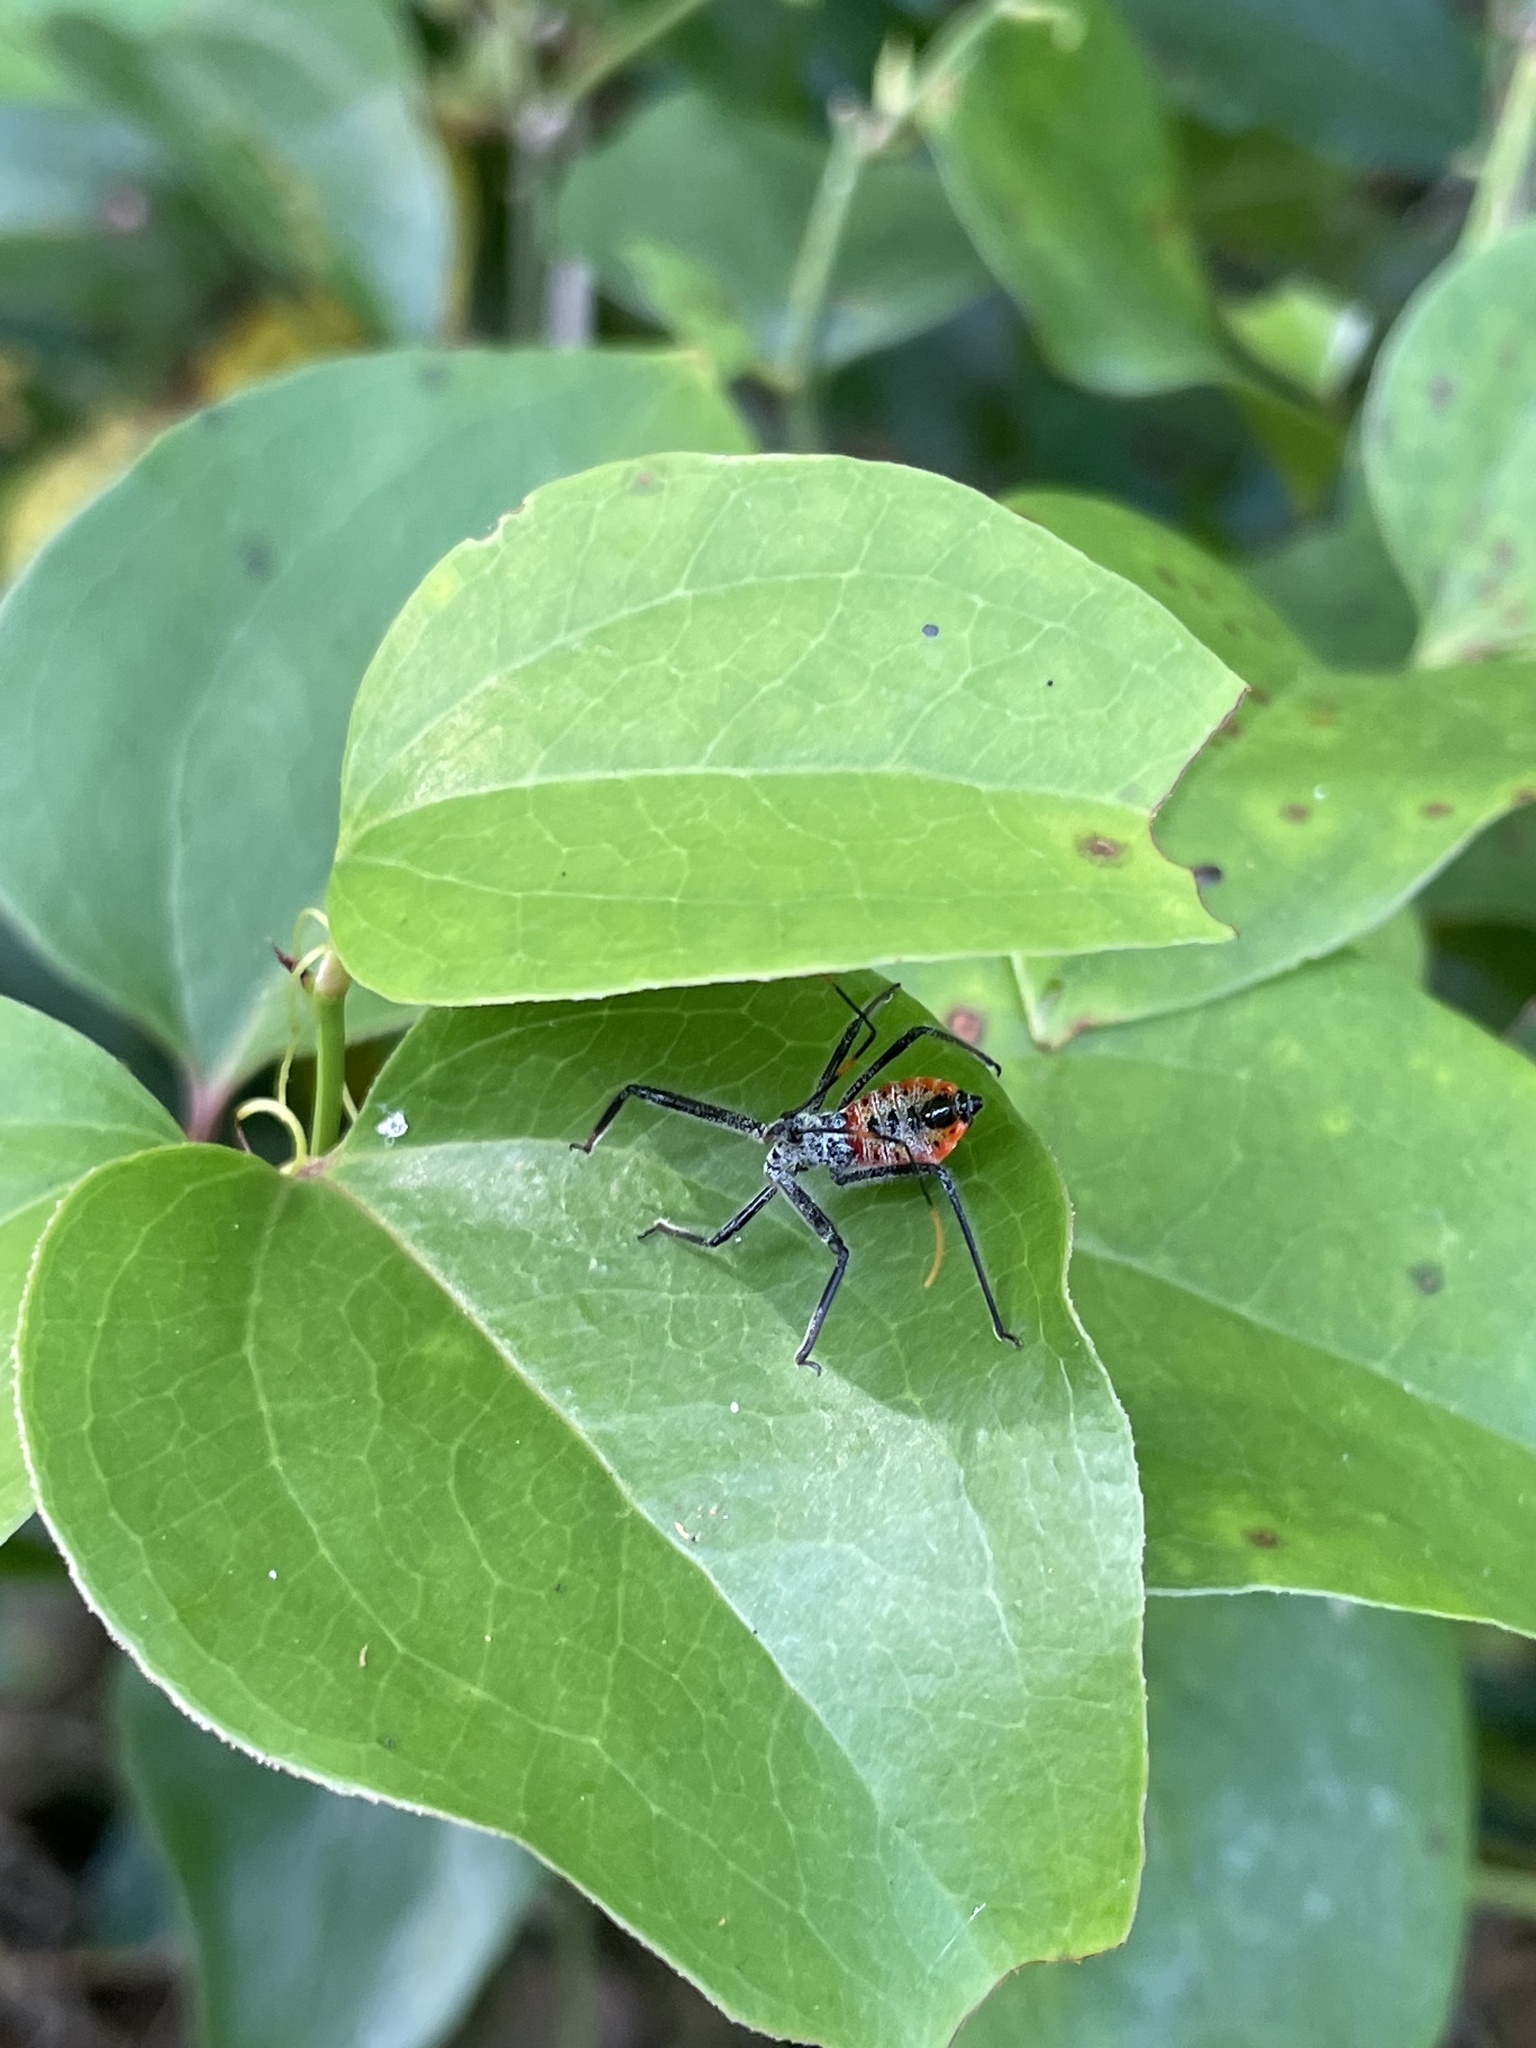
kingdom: Animalia
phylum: Arthropoda
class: Insecta
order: Hemiptera
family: Reduviidae
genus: Arilus
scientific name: Arilus cristatus
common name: North american wheel bug
